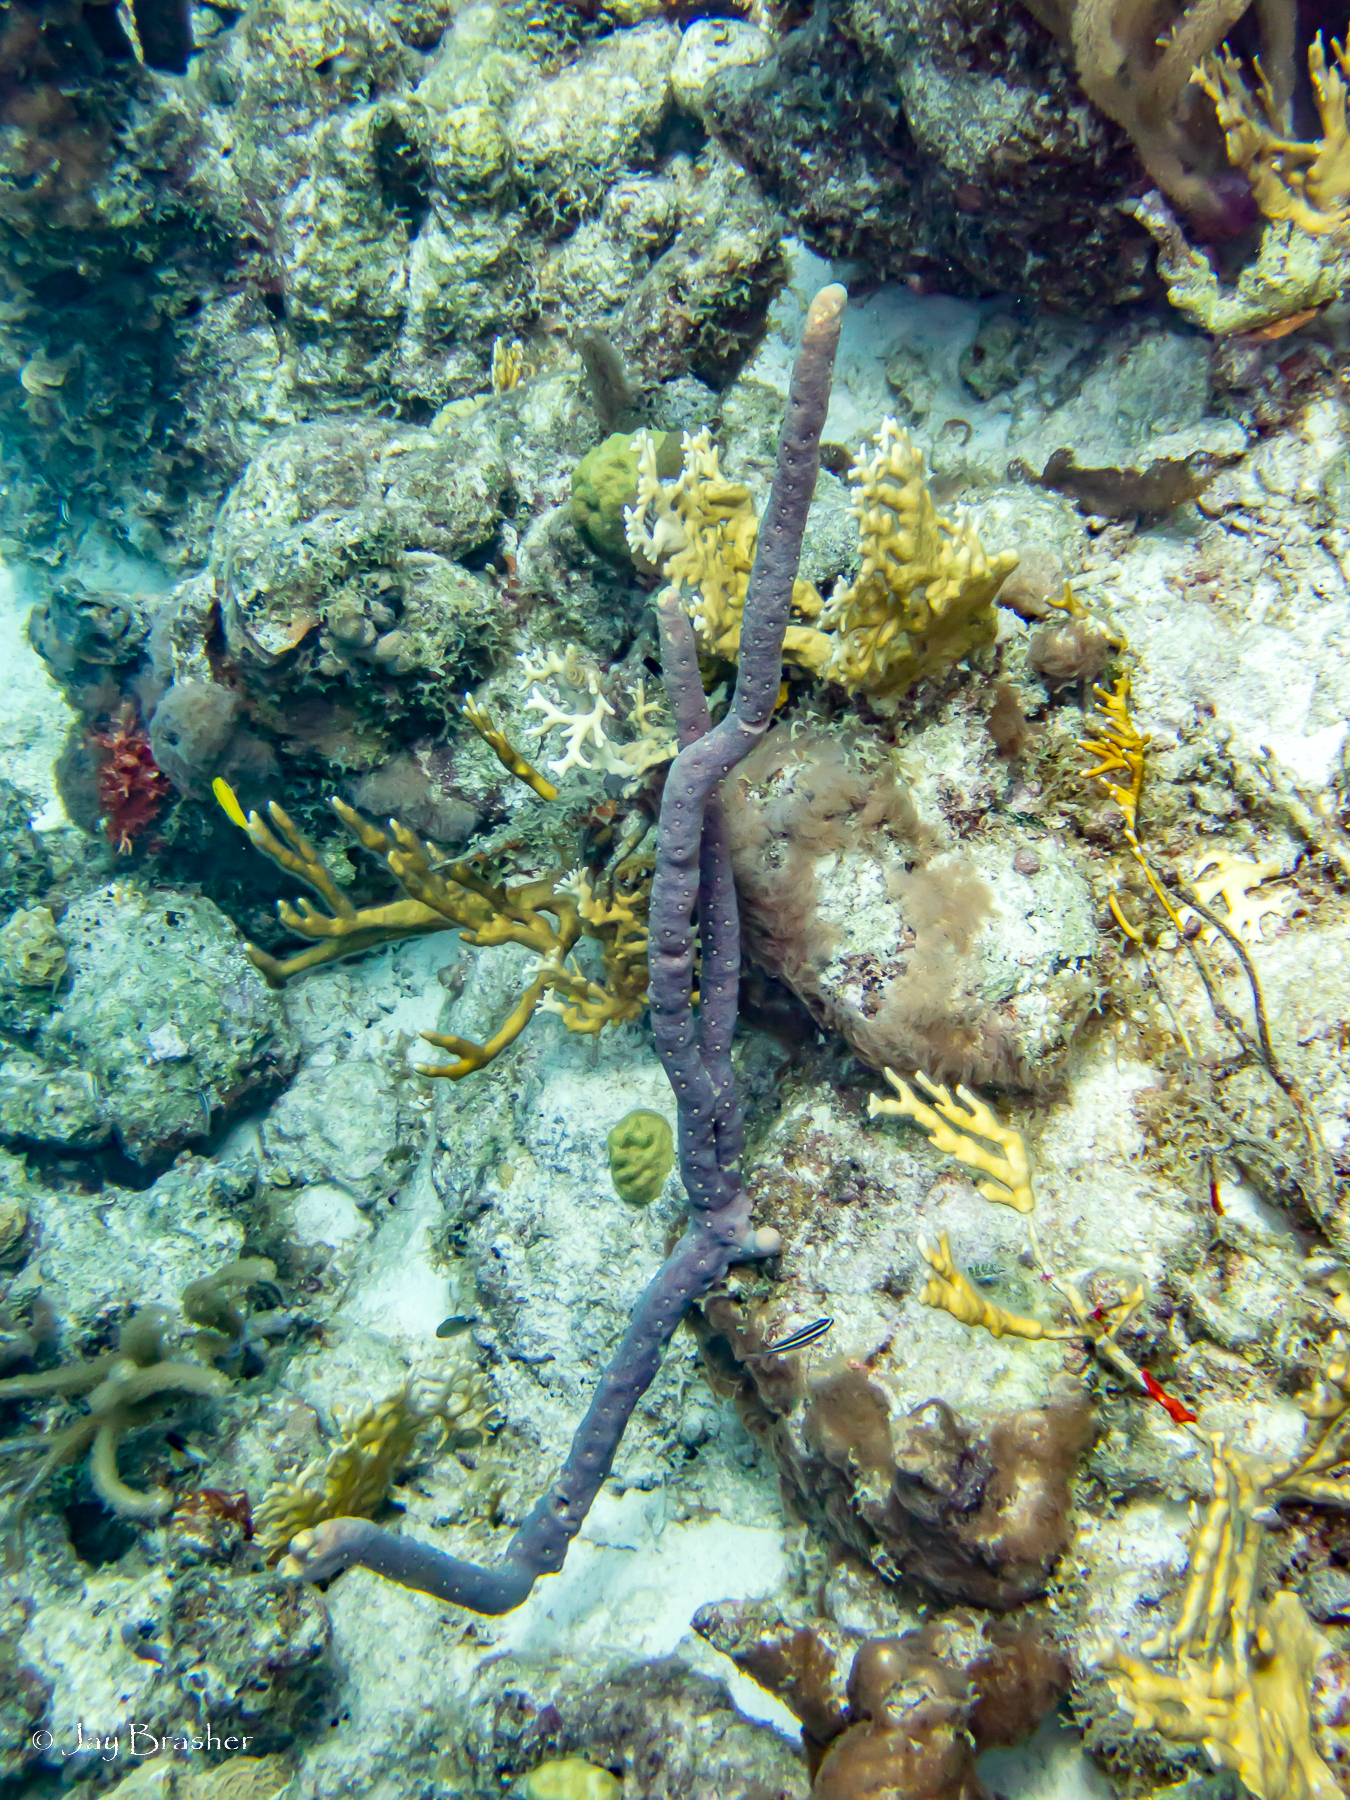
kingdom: Animalia
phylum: Cnidaria
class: Hydrozoa
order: Anthoathecata
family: Milleporidae
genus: Millepora
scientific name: Millepora alcicornis
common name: Branching fire coral
